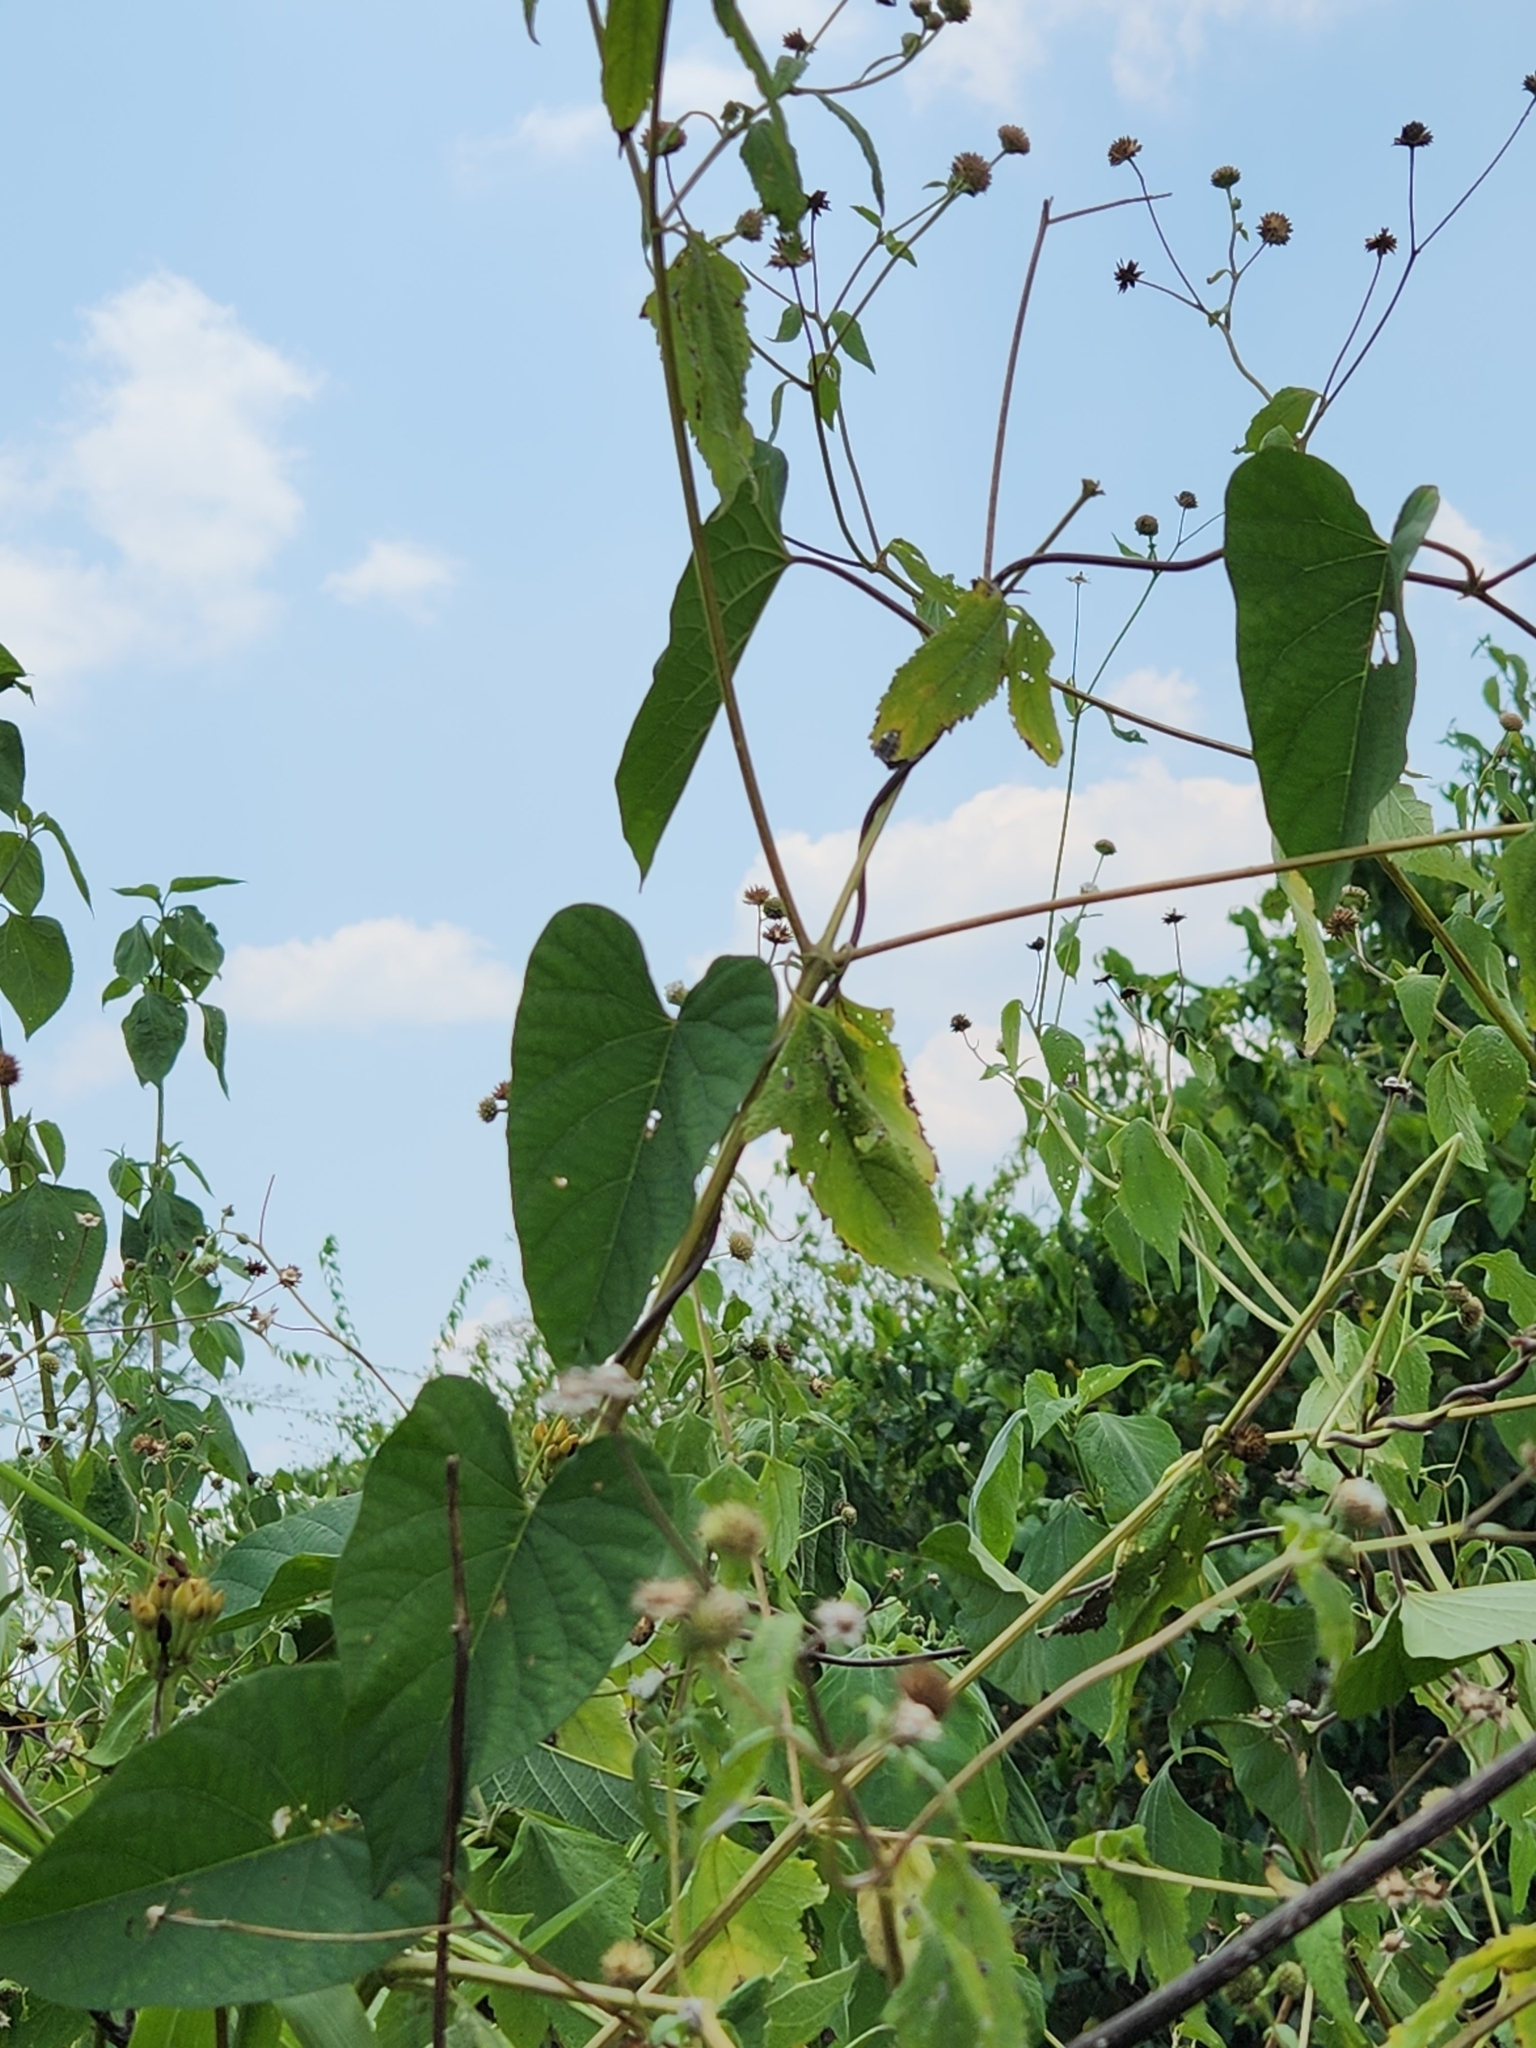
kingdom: Plantae
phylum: Tracheophyta
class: Magnoliopsida
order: Solanales
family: Convolvulaceae
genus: Camonea
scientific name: Camonea umbellata
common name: Hogvine
